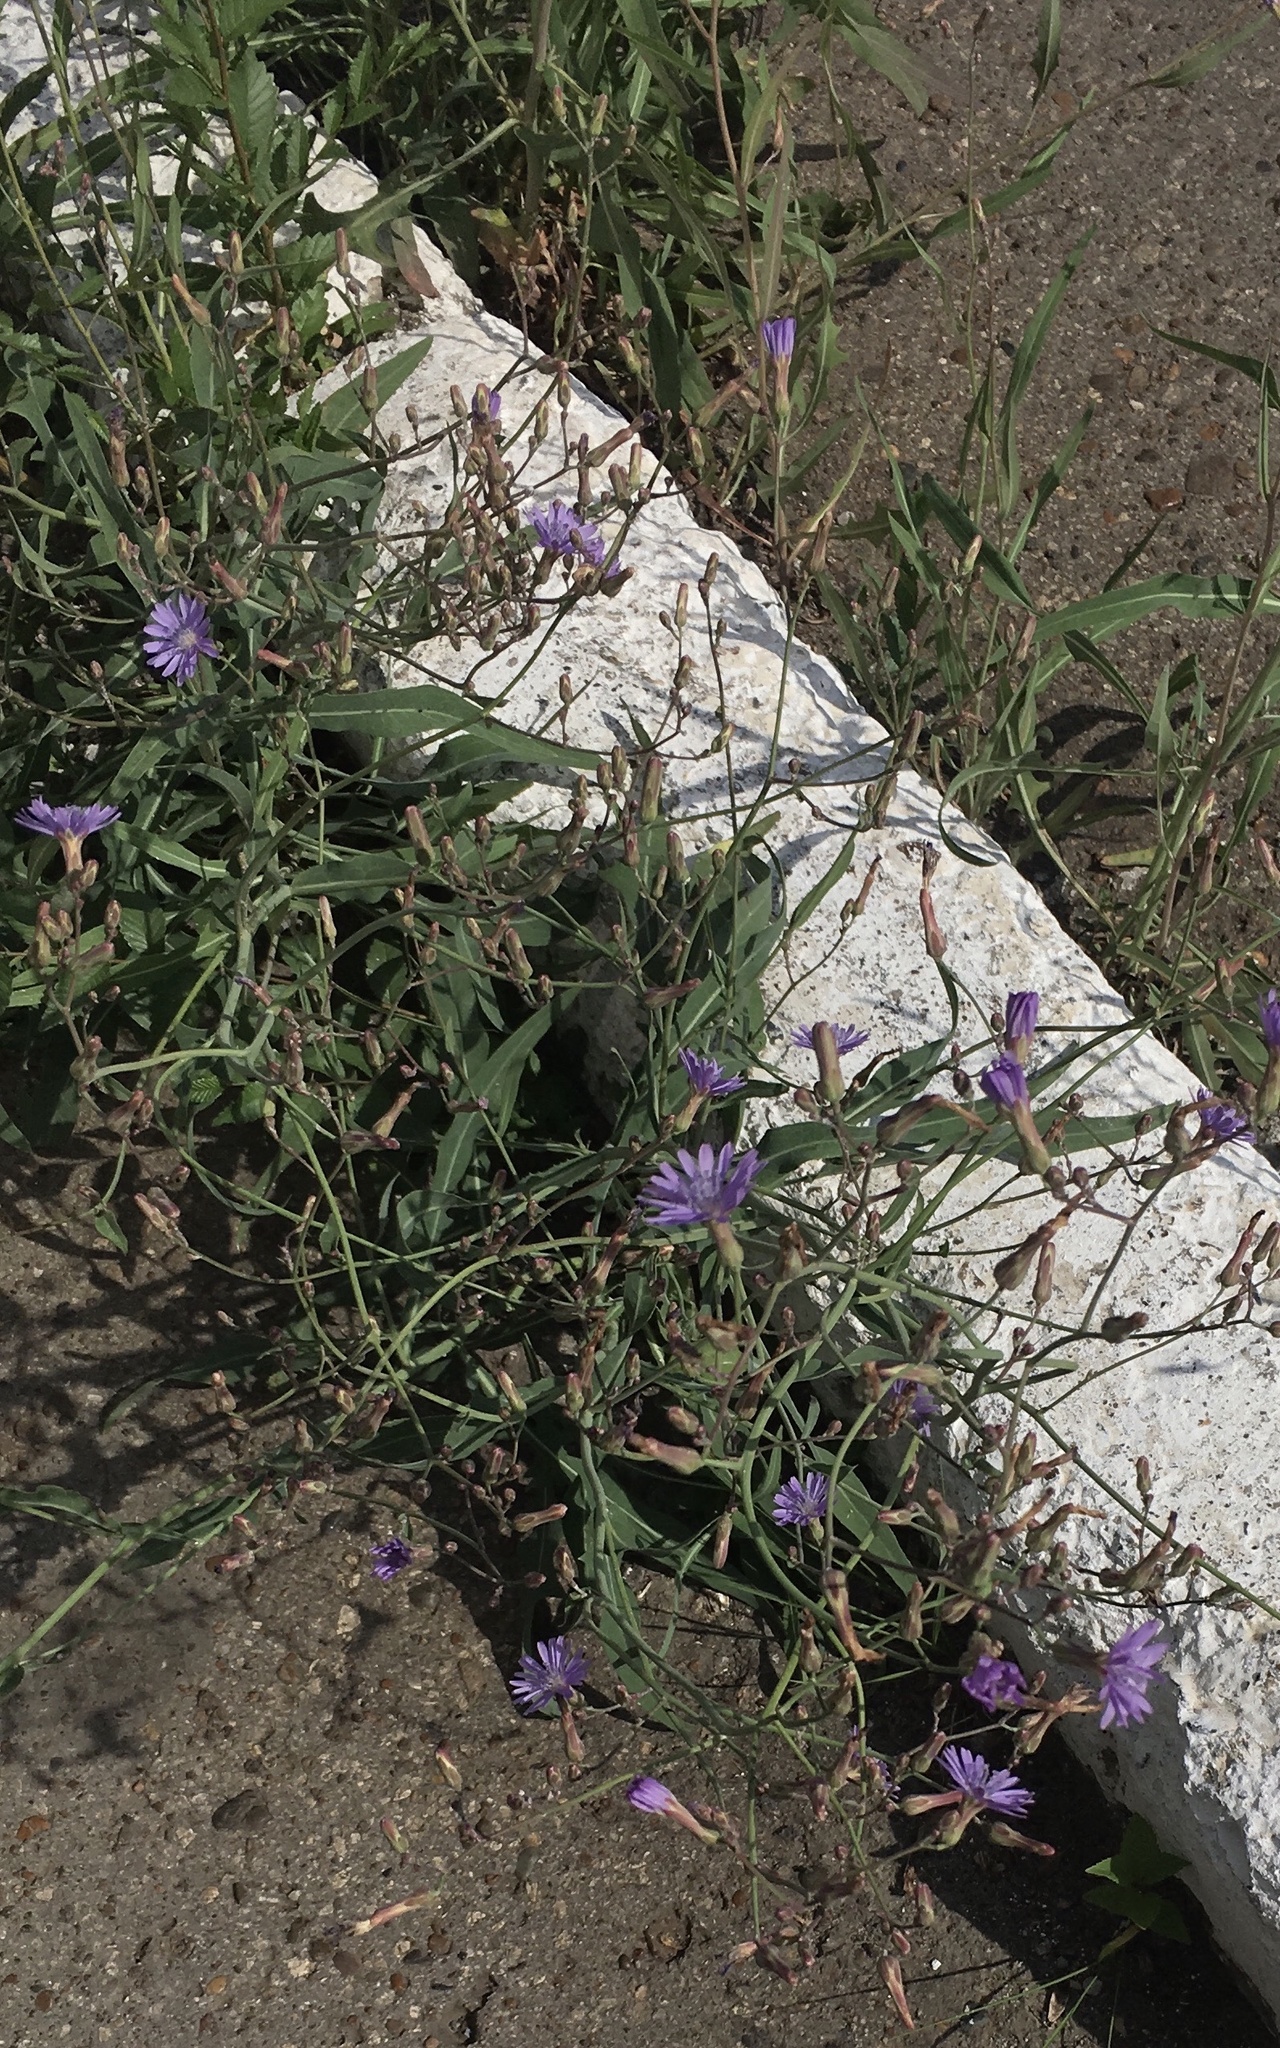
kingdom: Plantae
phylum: Tracheophyta
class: Magnoliopsida
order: Asterales
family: Asteraceae
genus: Lactuca
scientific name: Lactuca tatarica
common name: Blue lettuce
